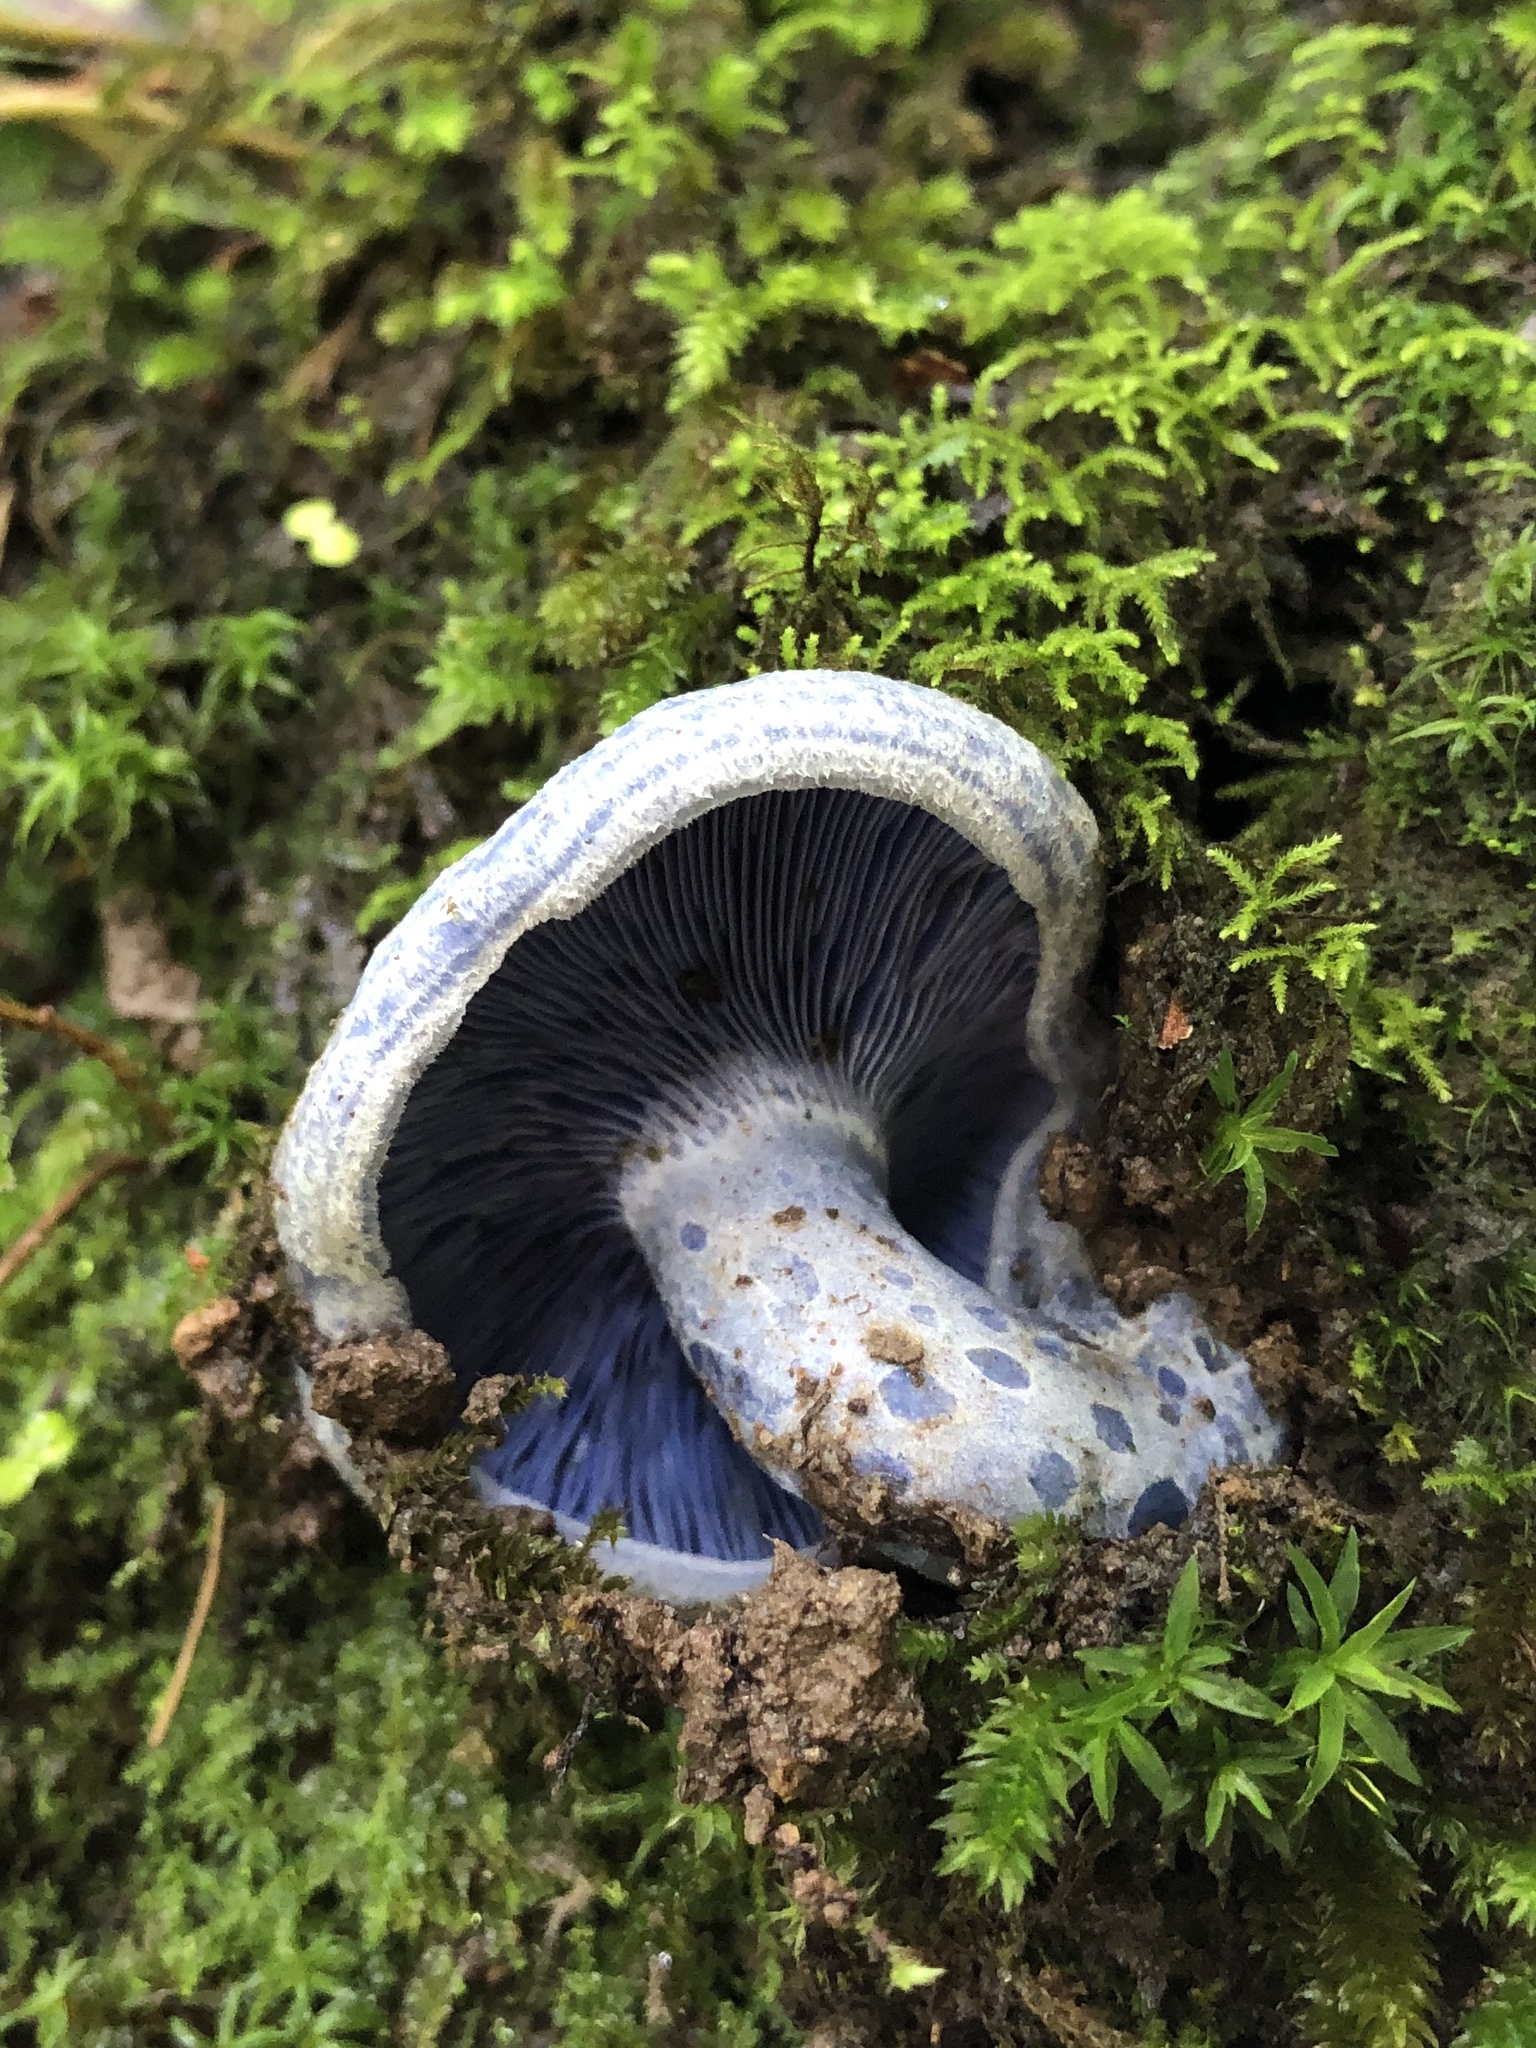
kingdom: Fungi
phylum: Basidiomycota
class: Agaricomycetes
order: Russulales
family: Russulaceae
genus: Lactarius
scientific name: Lactarius indigo
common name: Indigo milk cap
